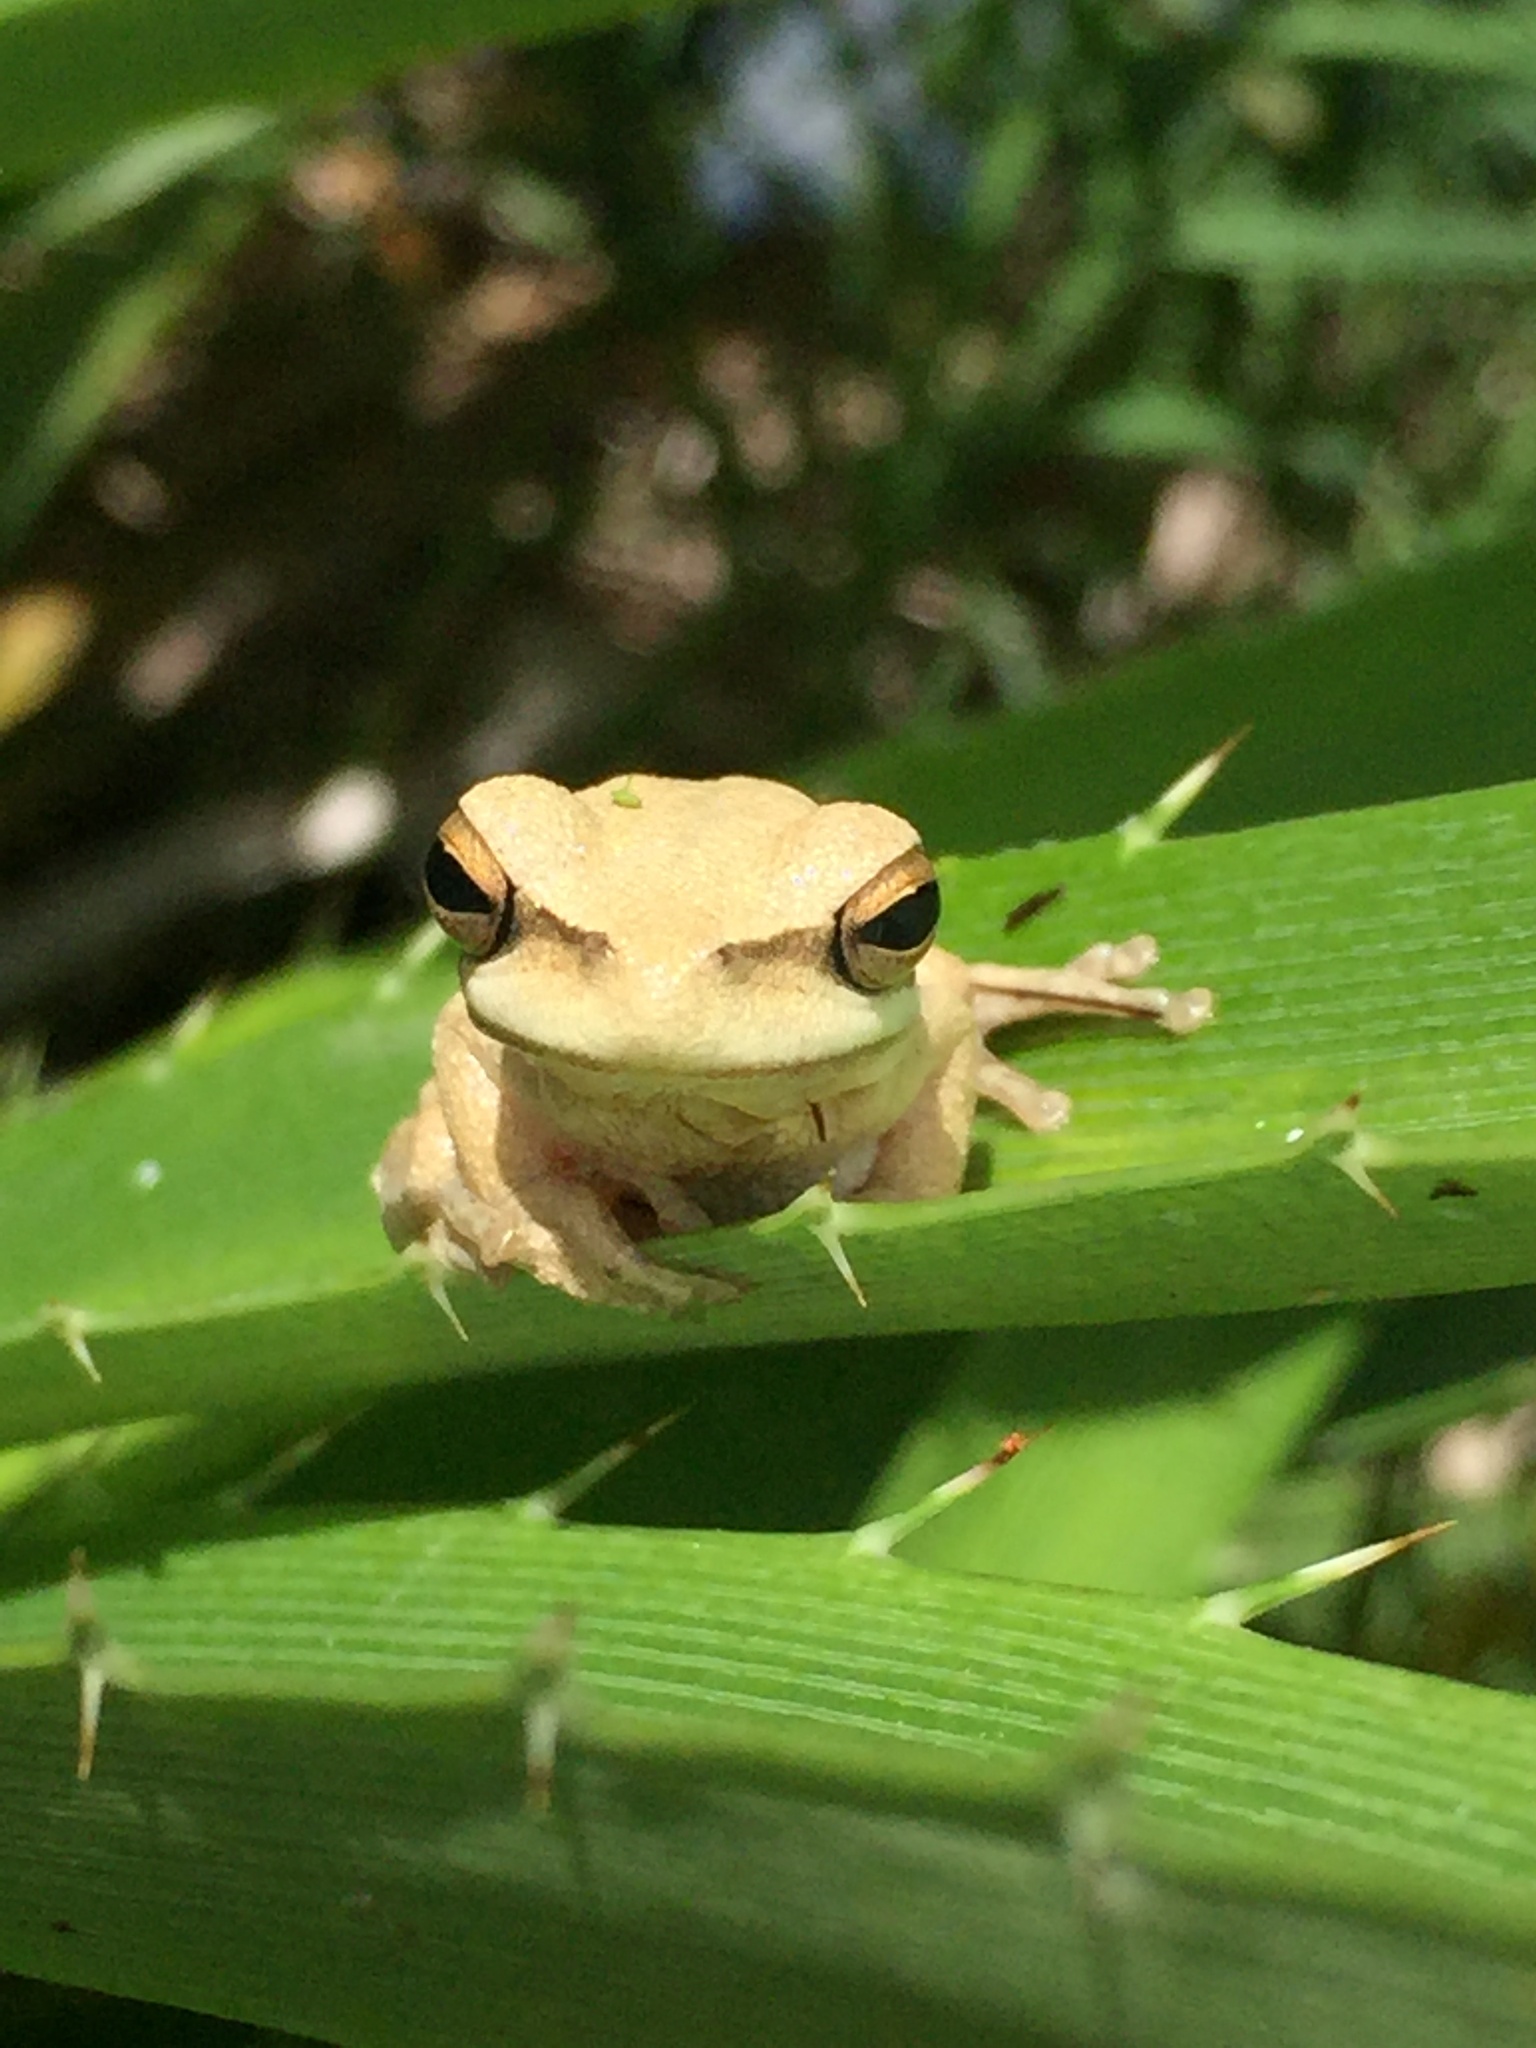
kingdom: Animalia
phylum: Chordata
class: Amphibia
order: Anura
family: Hylidae
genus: Boana
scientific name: Boana pulchella
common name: Montevideo treefrog
